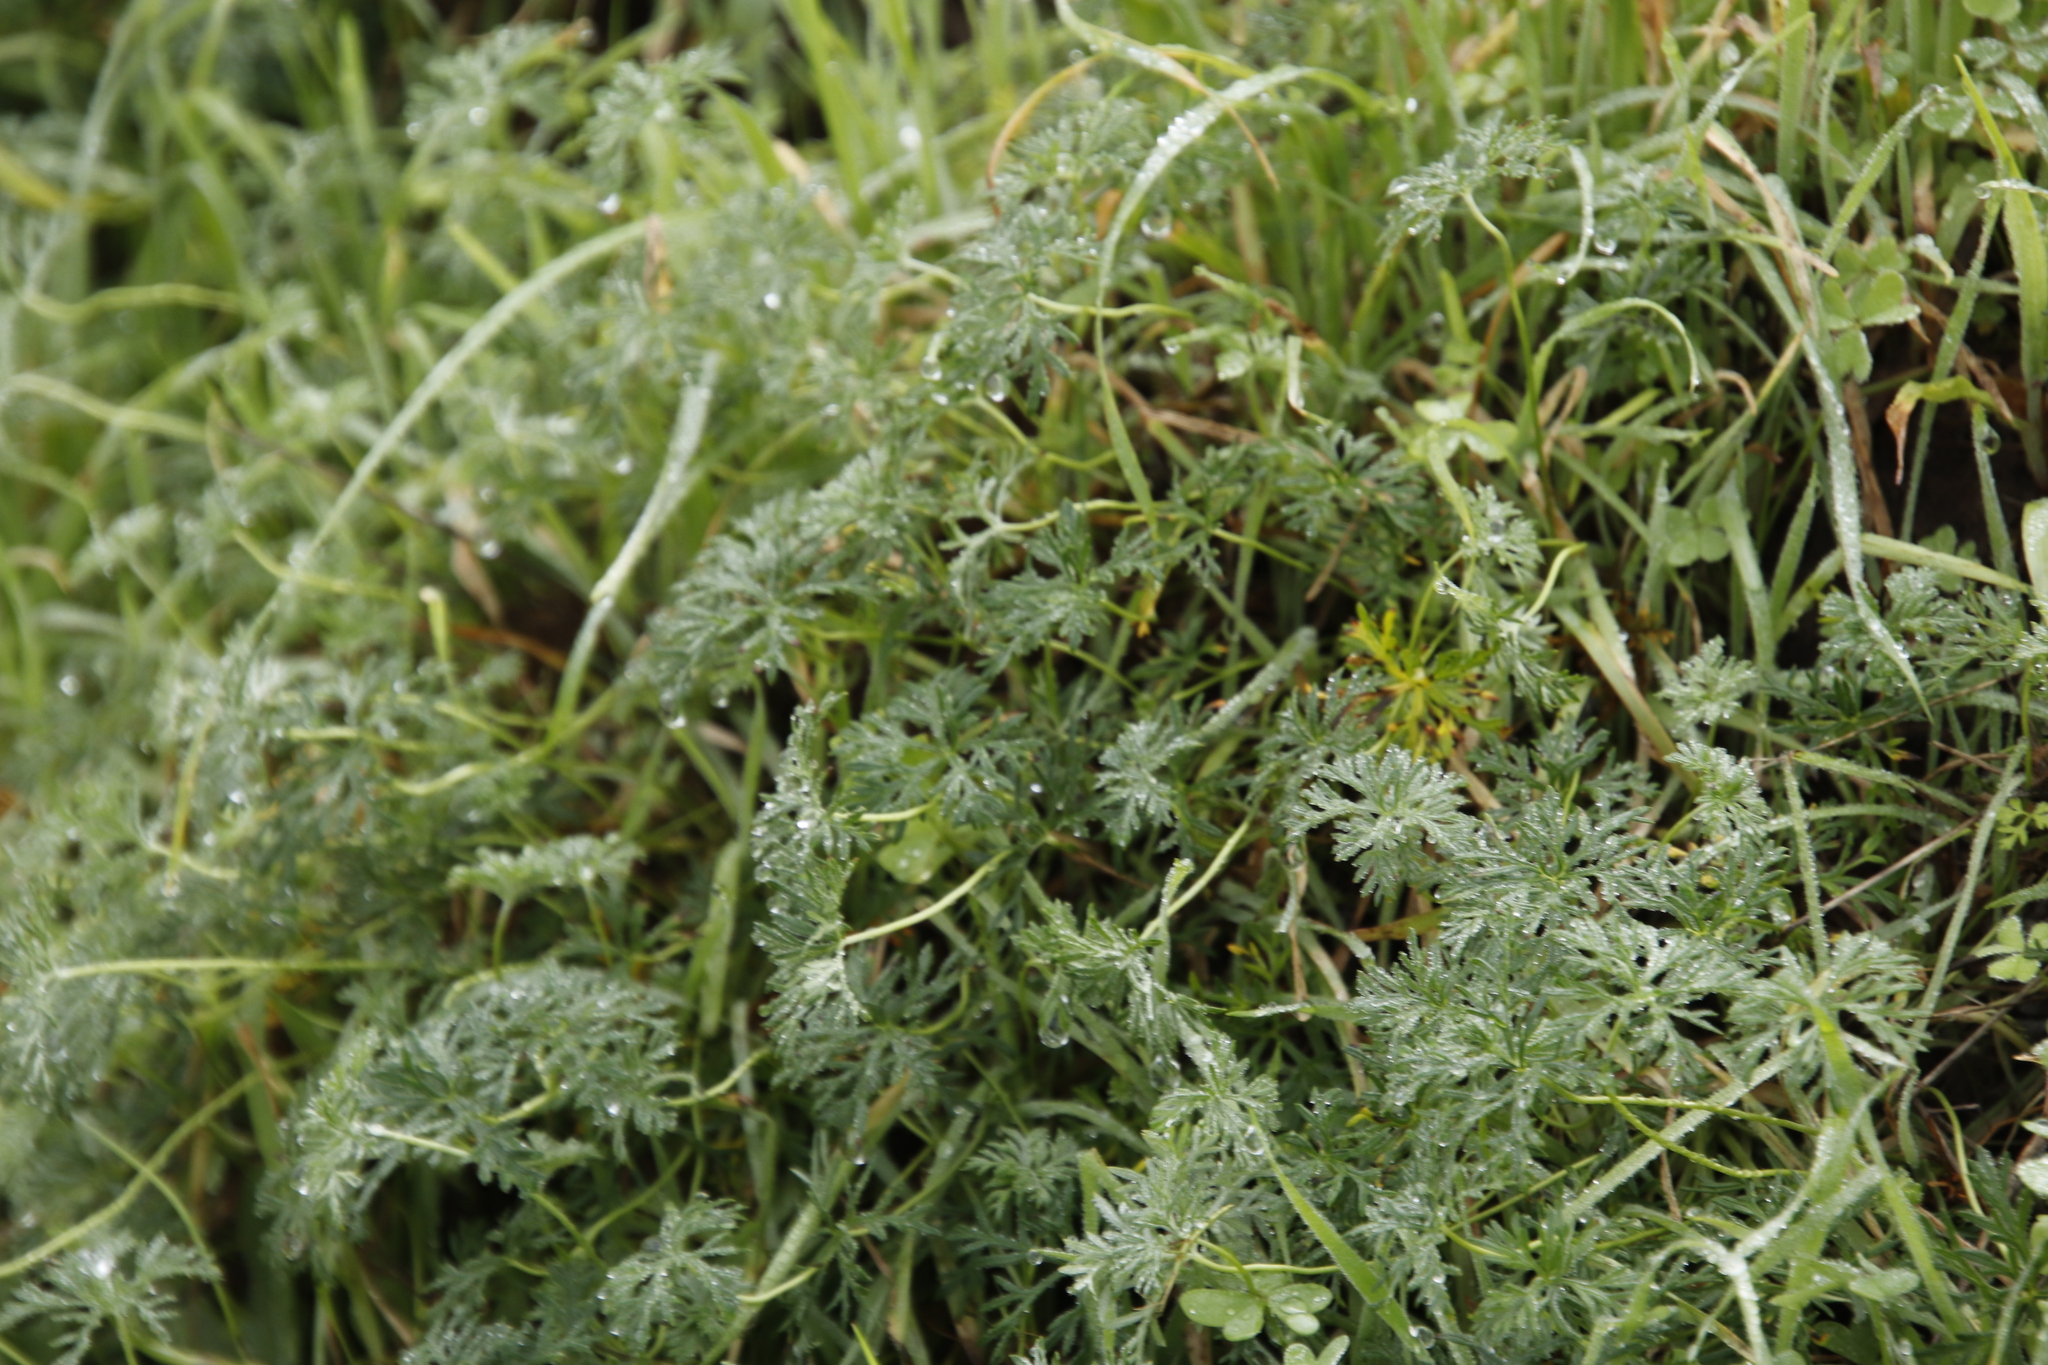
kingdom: Plantae
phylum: Tracheophyta
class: Magnoliopsida
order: Geraniales
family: Geraniaceae
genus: Geranium
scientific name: Geranium incanum
